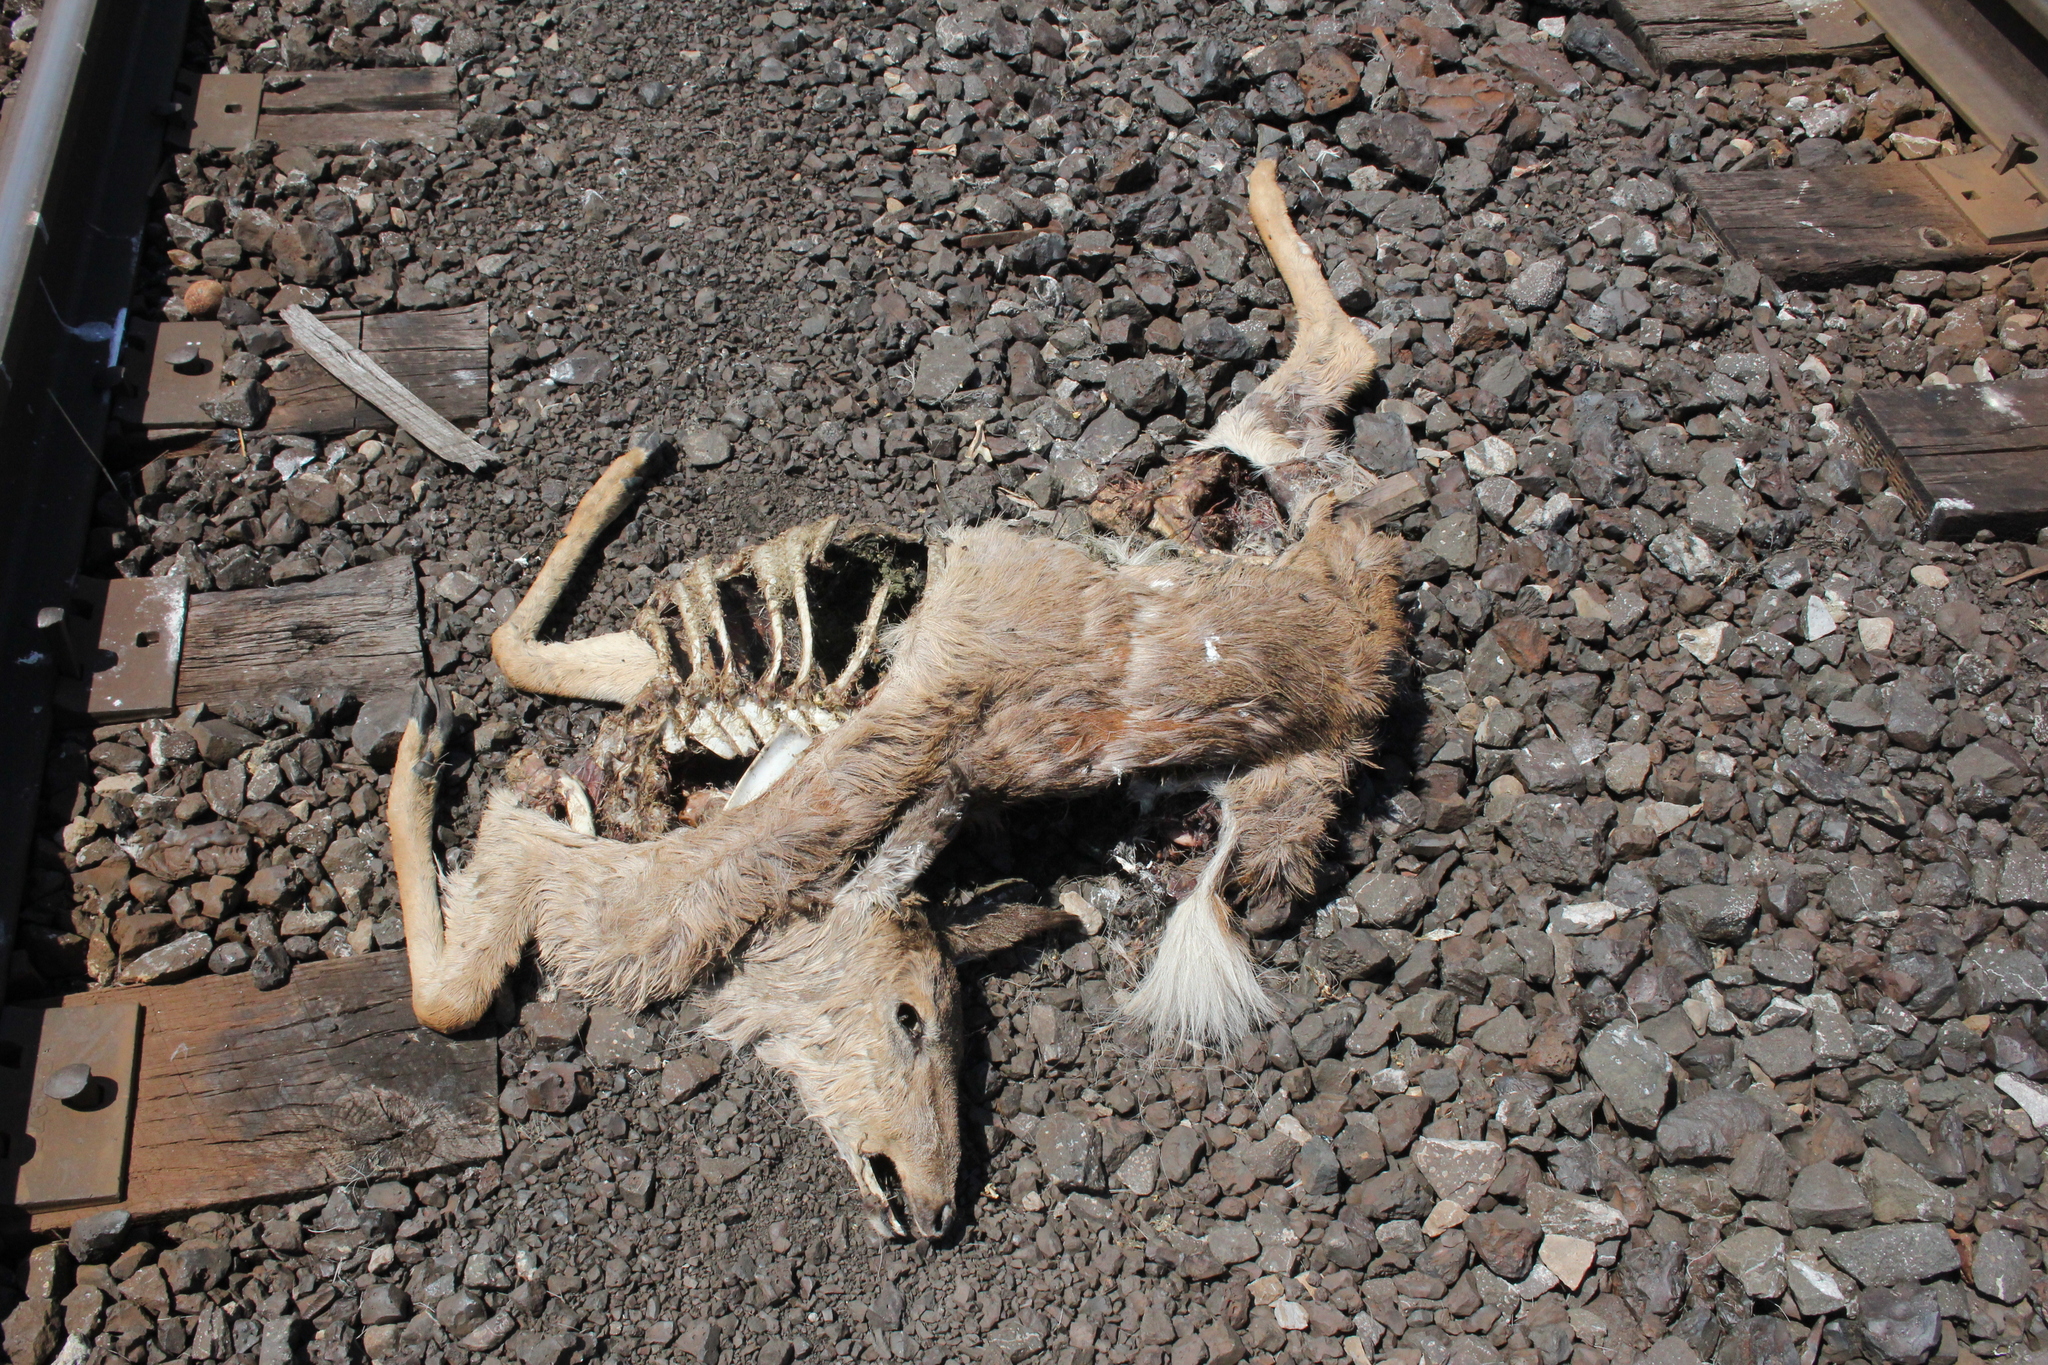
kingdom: Animalia
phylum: Chordata
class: Mammalia
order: Artiodactyla
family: Cervidae
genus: Odocoileus
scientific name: Odocoileus virginianus
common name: White-tailed deer
